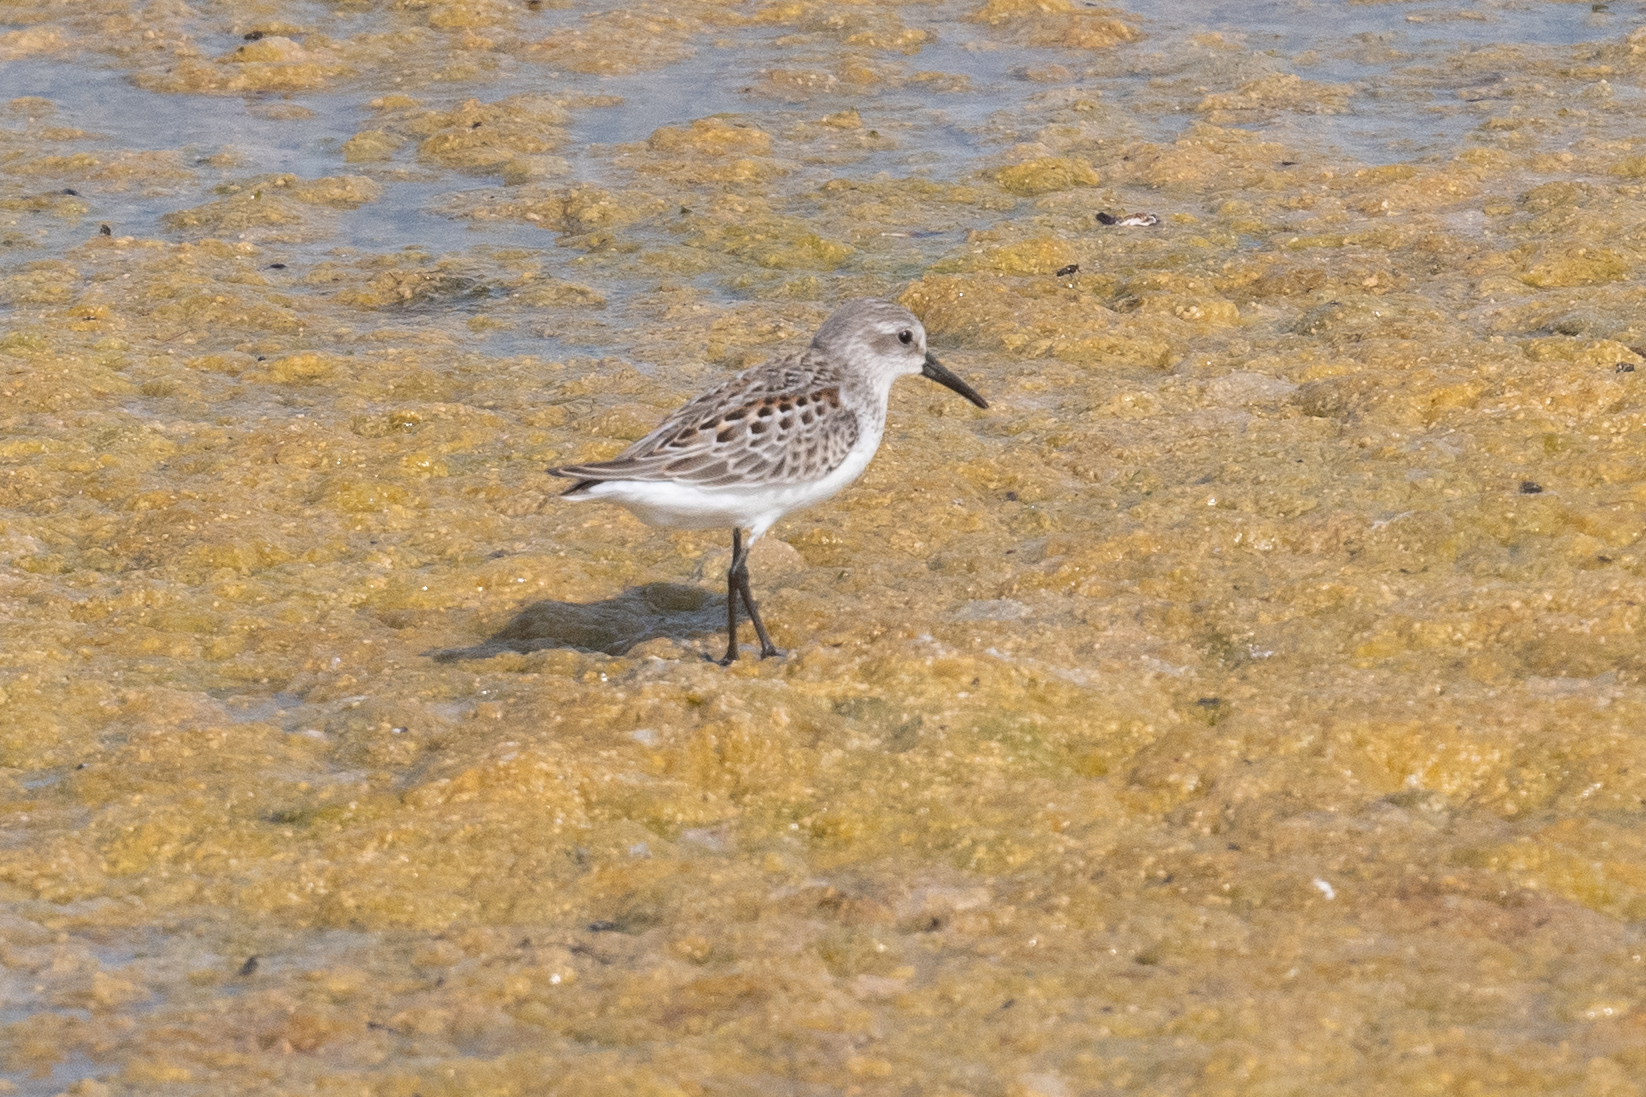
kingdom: Animalia
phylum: Chordata
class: Aves
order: Charadriiformes
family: Scolopacidae
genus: Calidris
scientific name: Calidris mauri
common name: Western sandpiper
